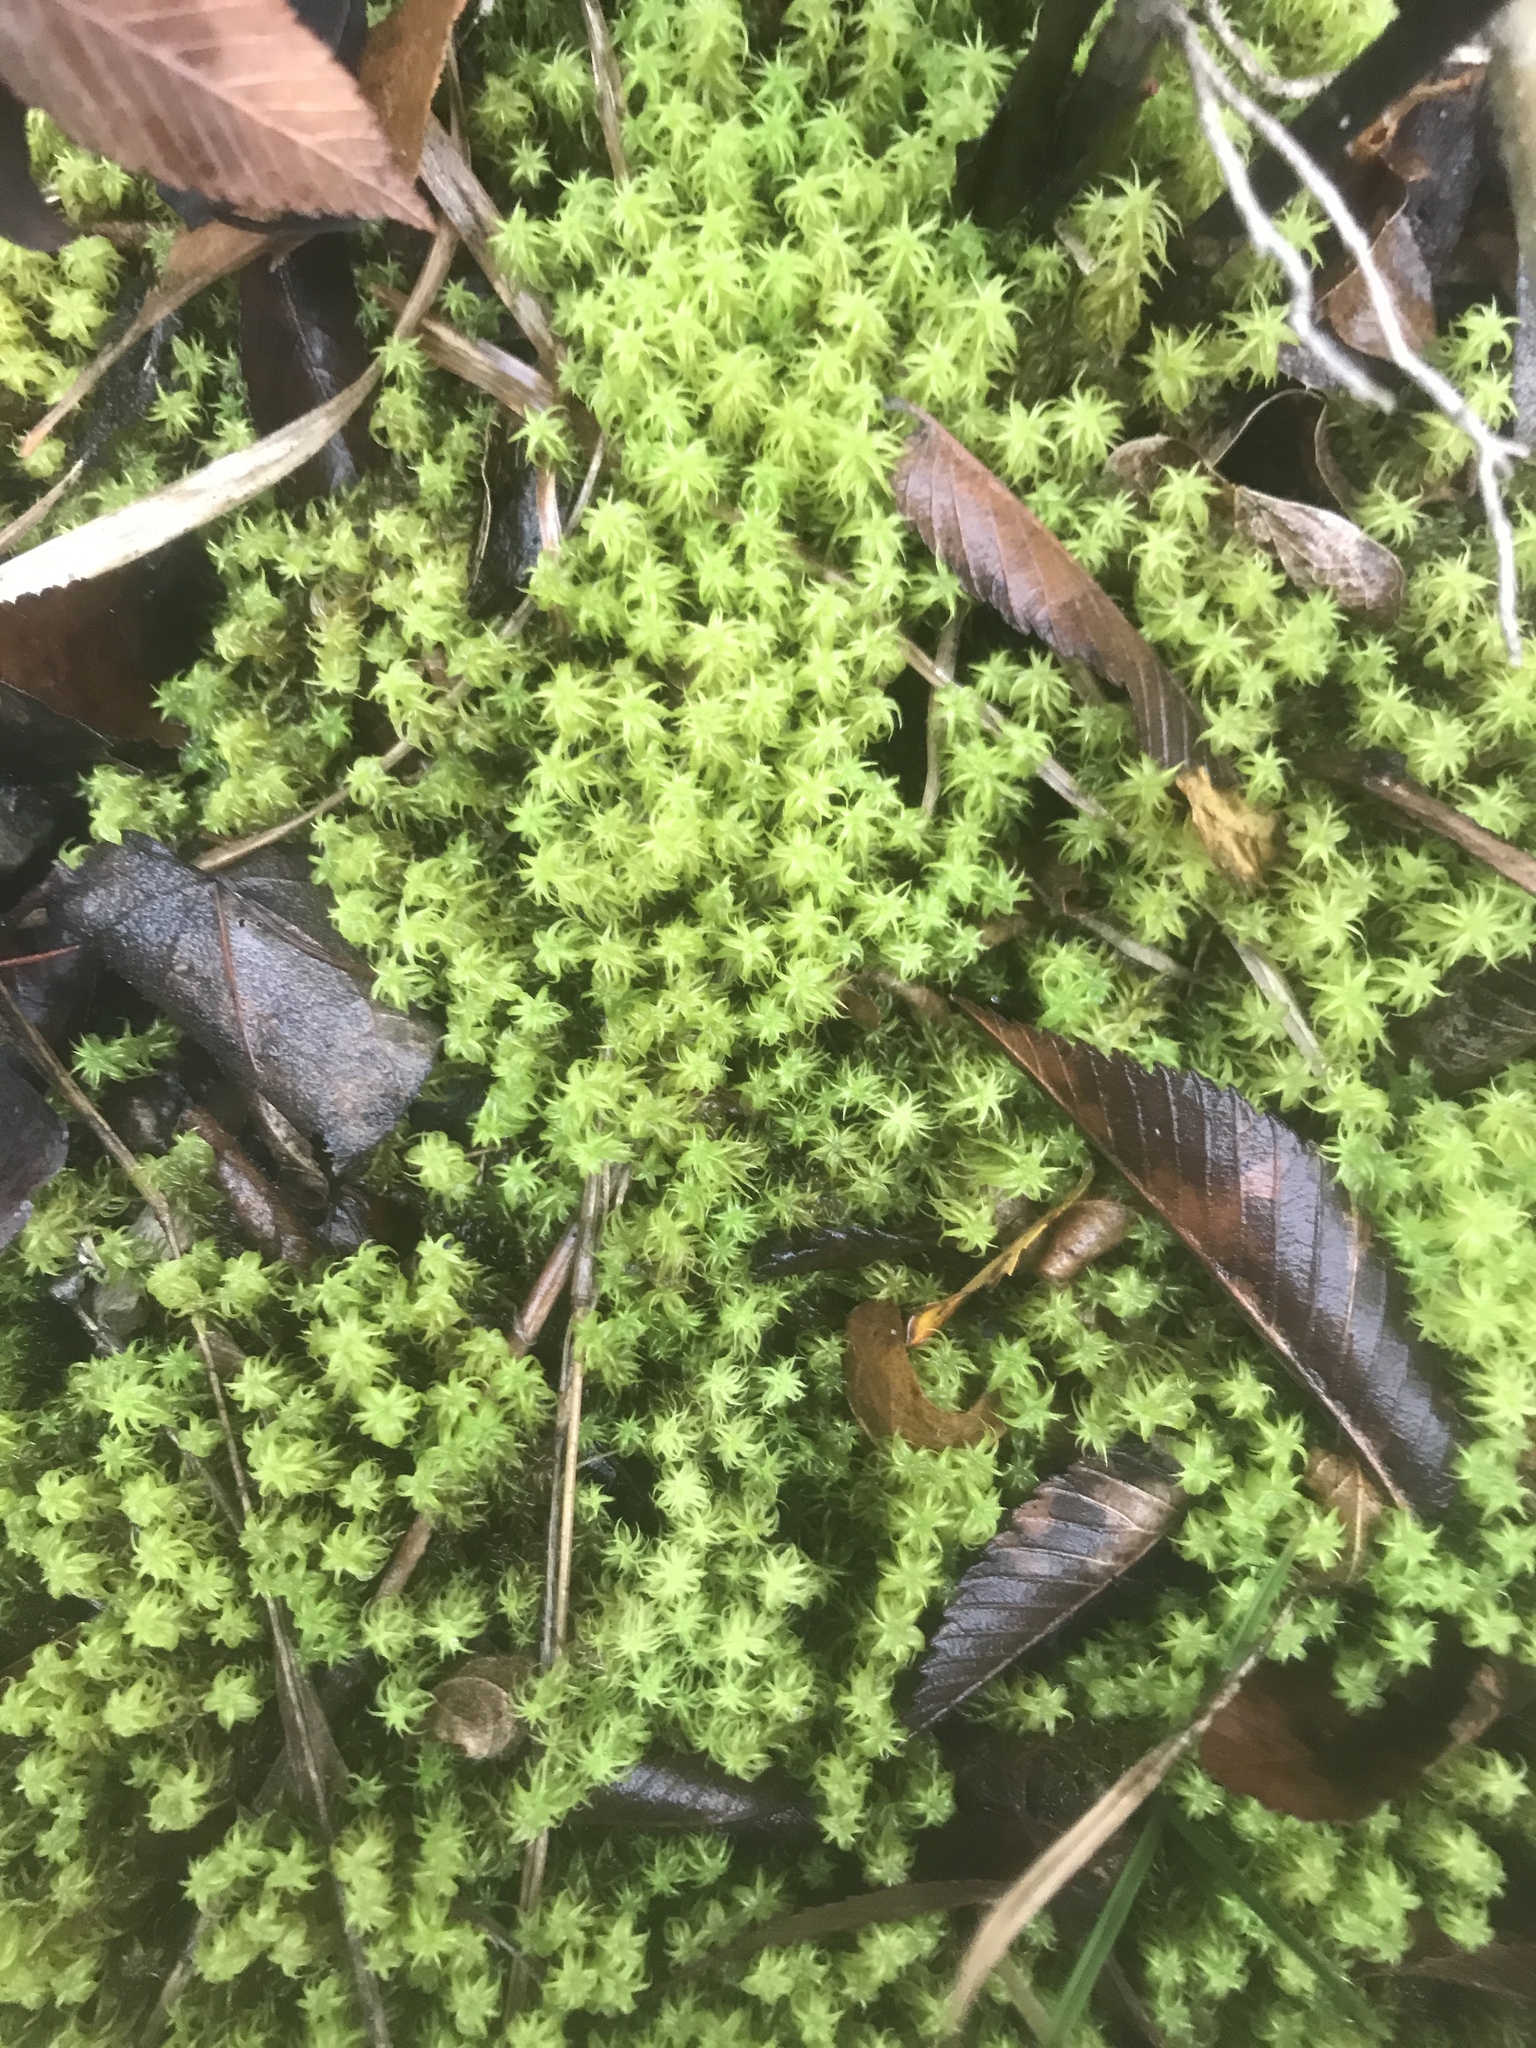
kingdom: Plantae
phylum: Bryophyta
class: Bryopsida
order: Pottiales
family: Pottiaceae
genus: Pleurochaete
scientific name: Pleurochaete squarrosa
